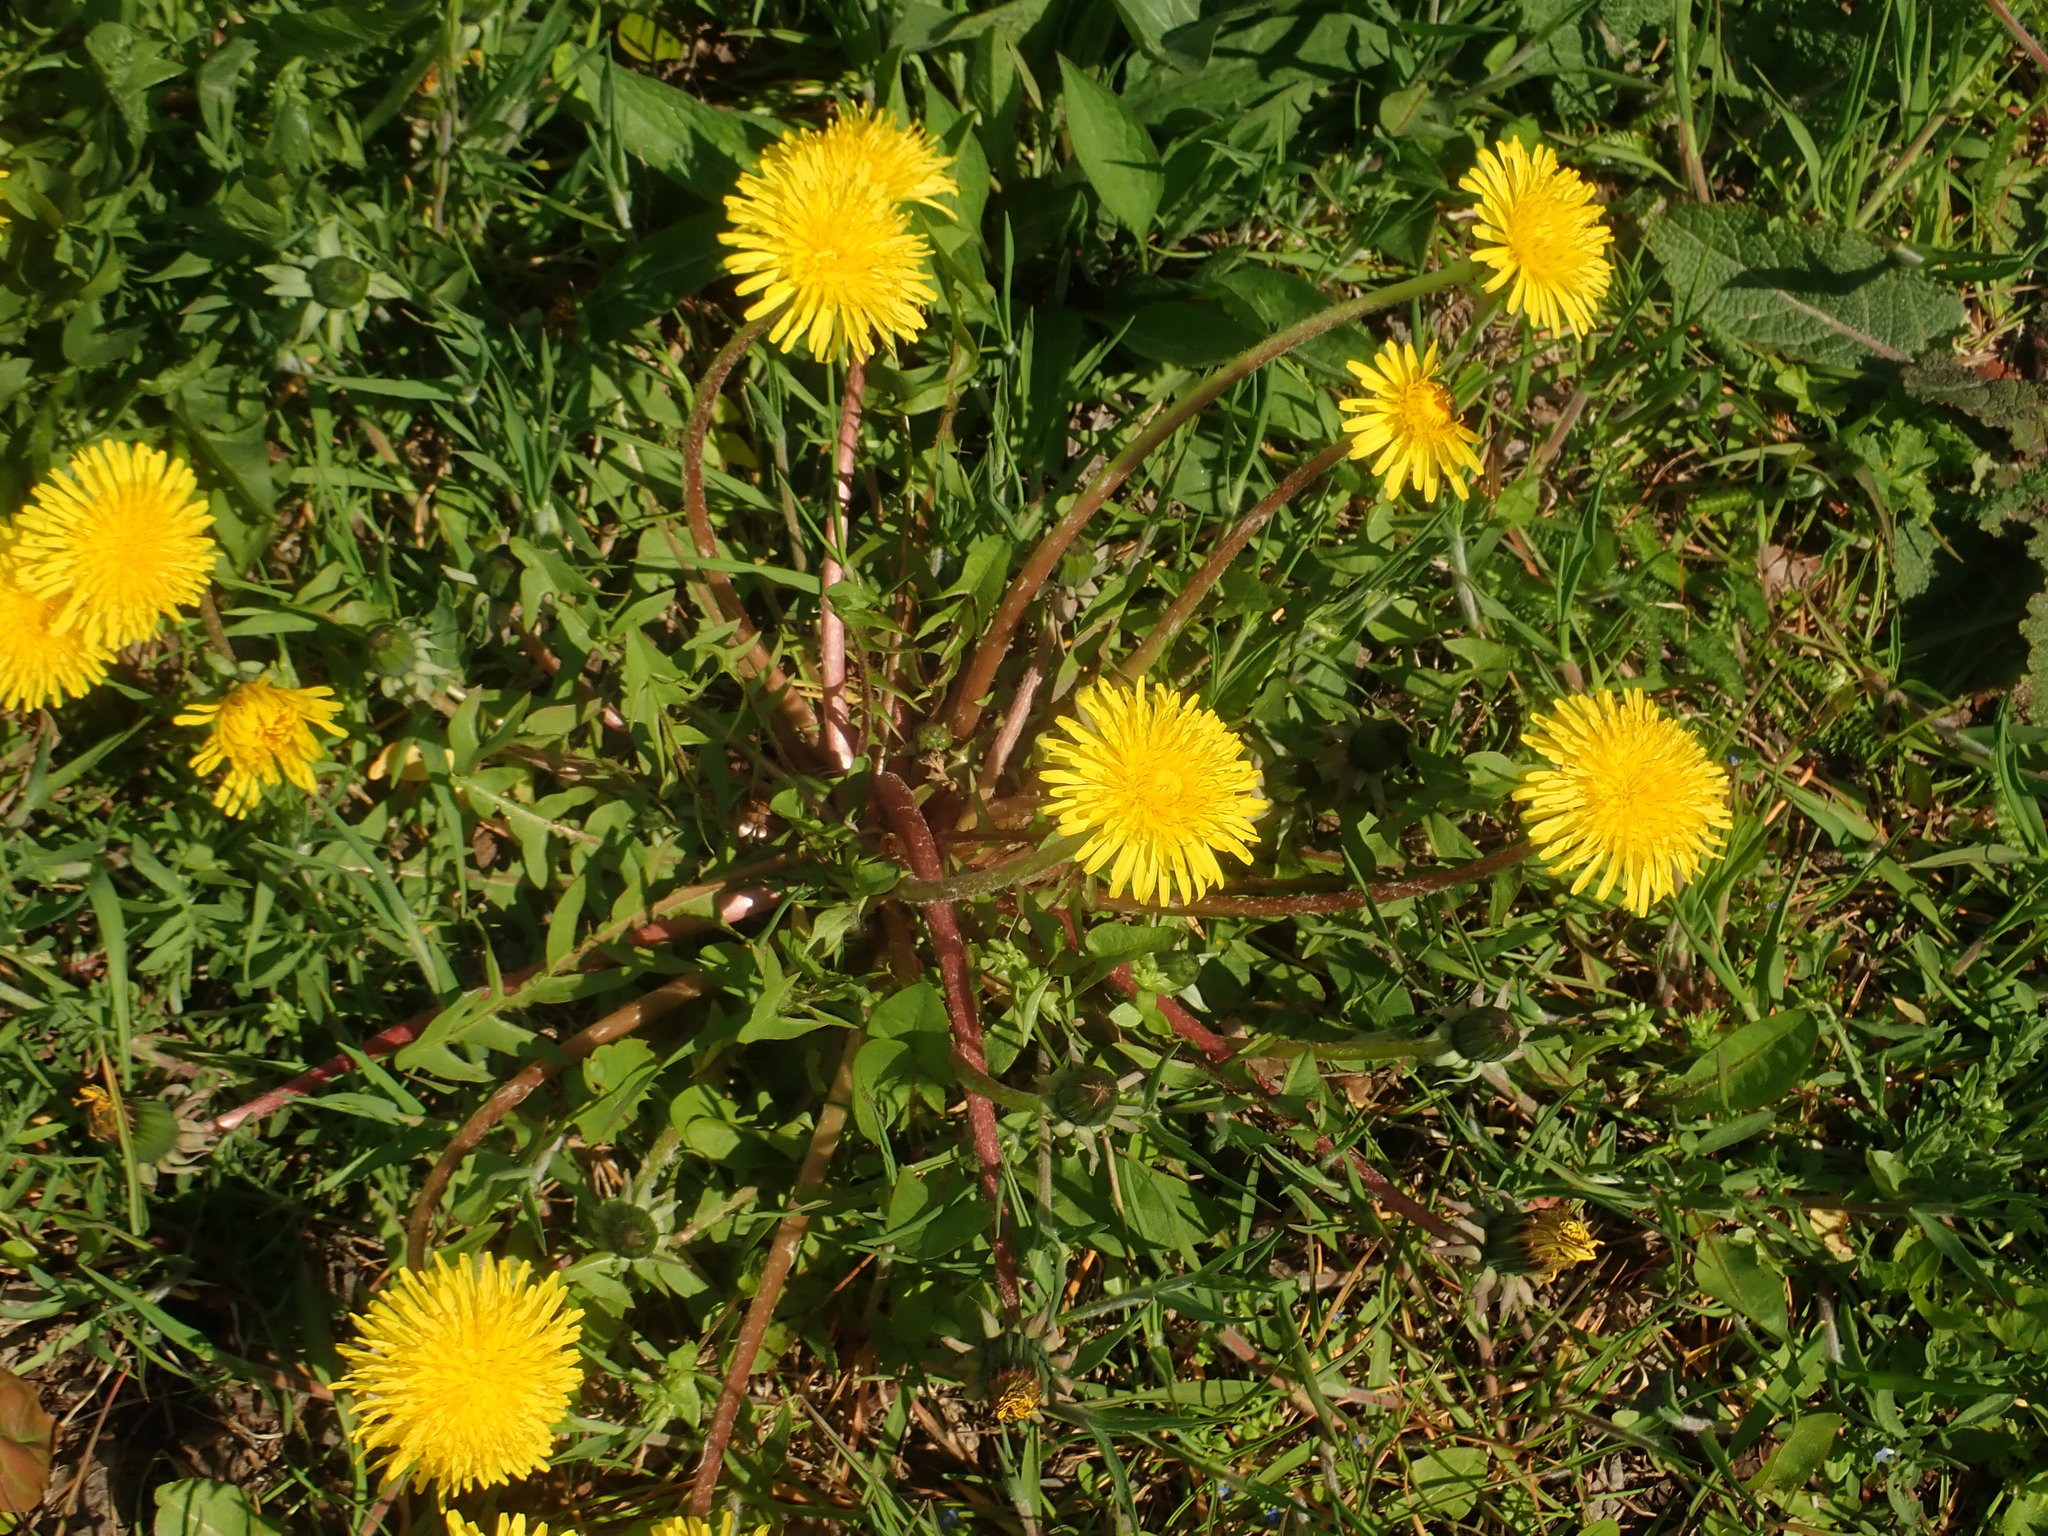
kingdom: Plantae
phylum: Tracheophyta
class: Magnoliopsida
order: Asterales
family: Asteraceae
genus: Taraxacum
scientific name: Taraxacum
